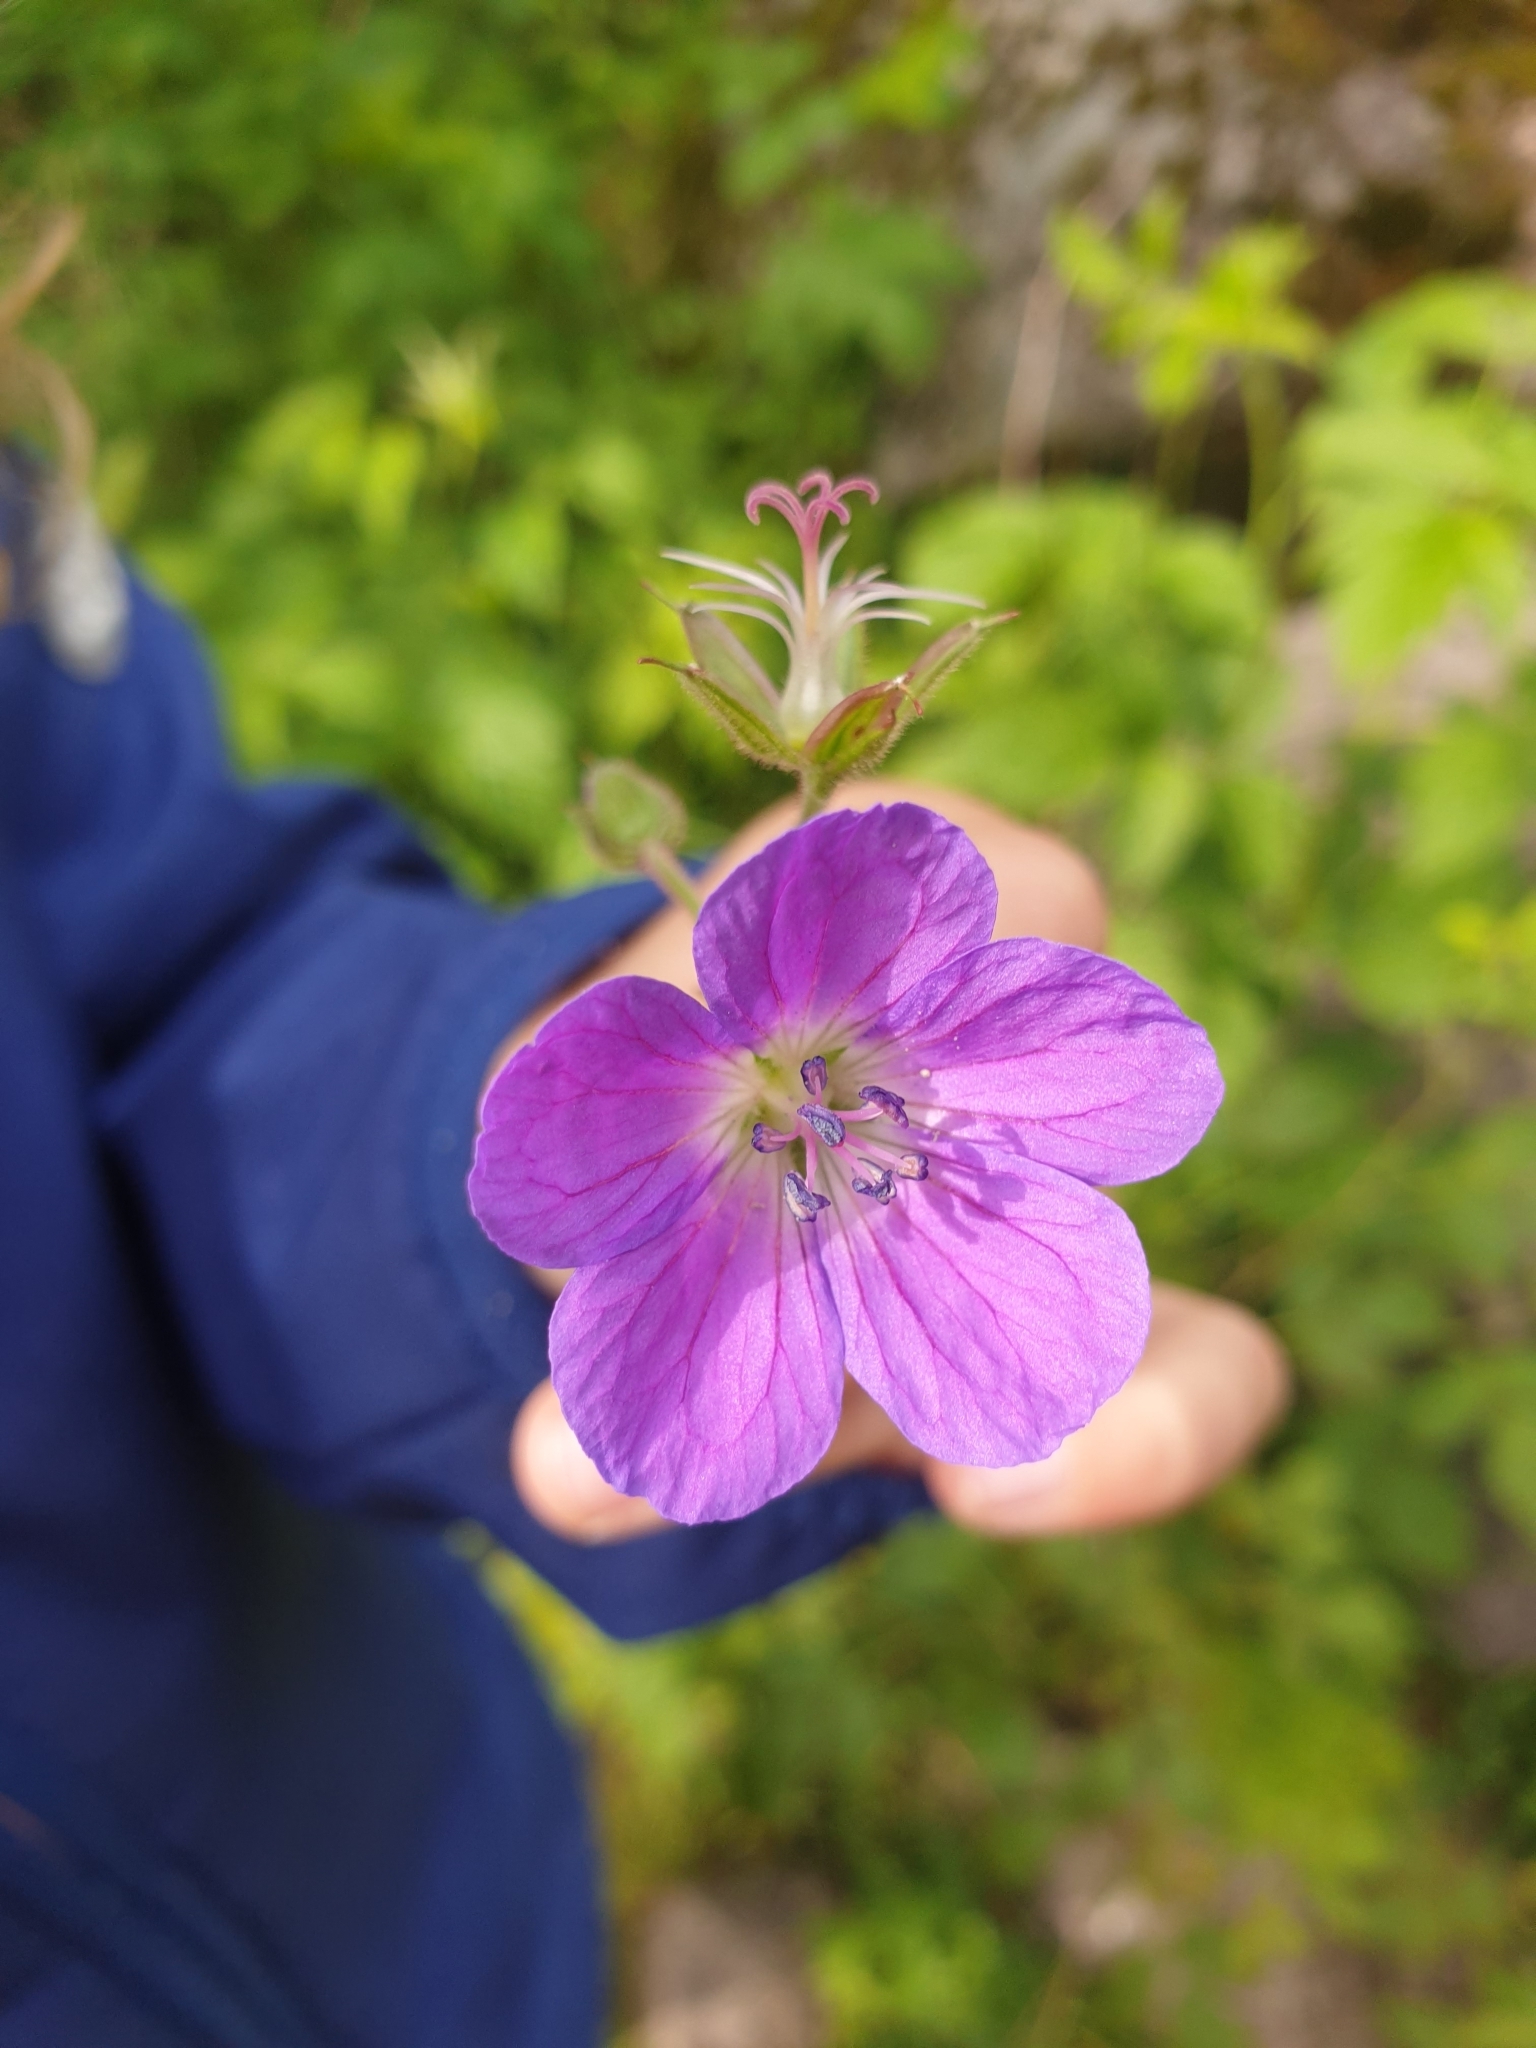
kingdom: Plantae
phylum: Tracheophyta
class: Magnoliopsida
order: Geraniales
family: Geraniaceae
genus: Geranium
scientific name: Geranium sylvaticum
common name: Wood crane's-bill
